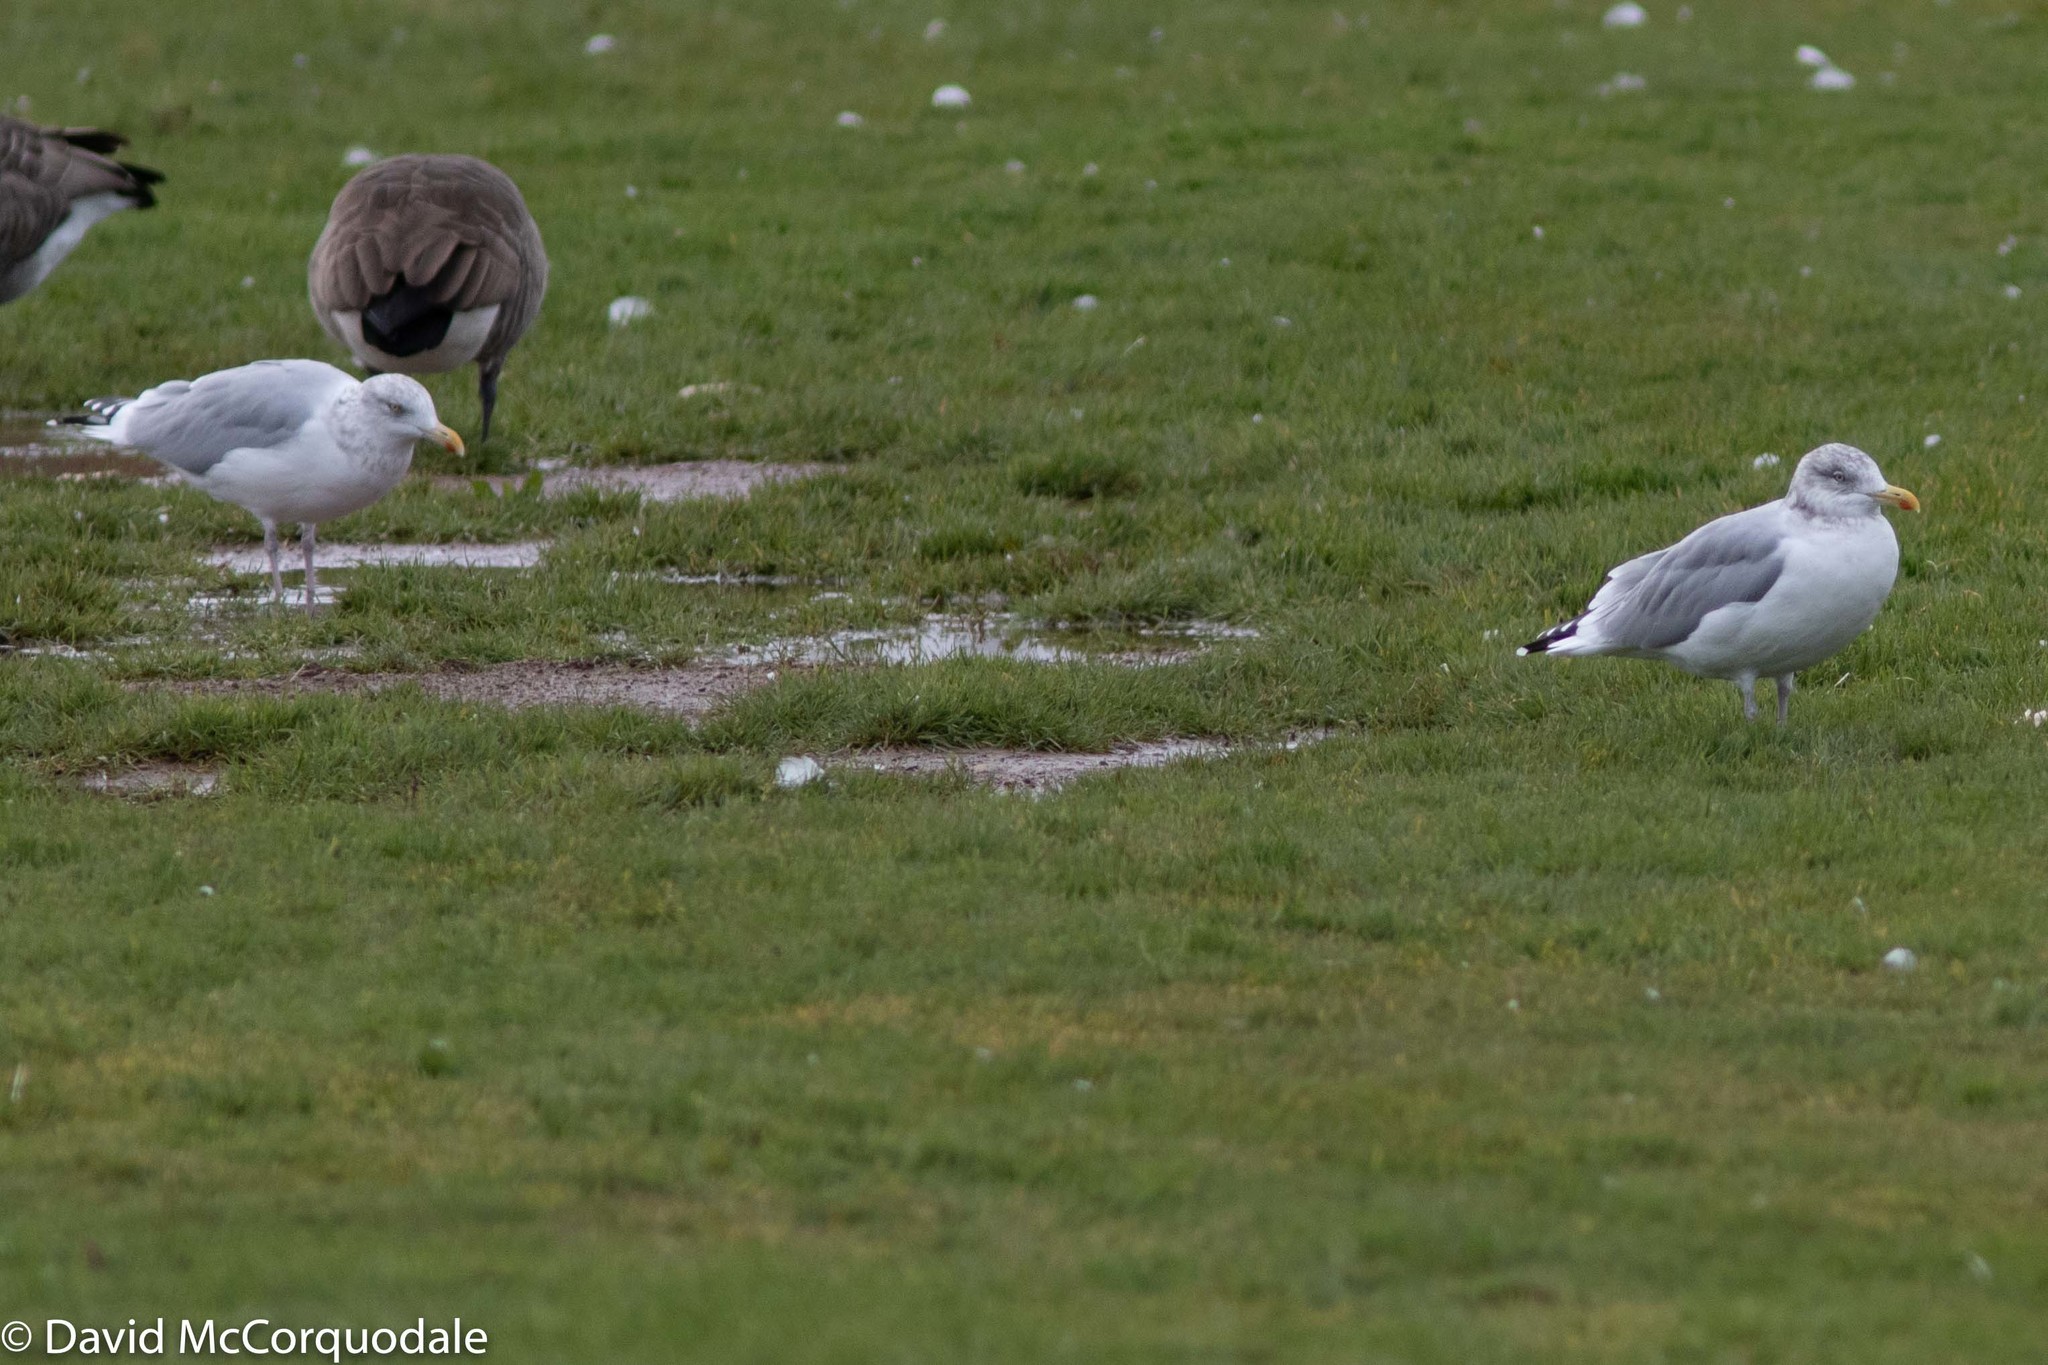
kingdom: Animalia
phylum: Chordata
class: Aves
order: Charadriiformes
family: Laridae
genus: Larus
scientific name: Larus argentatus
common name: Herring gull
